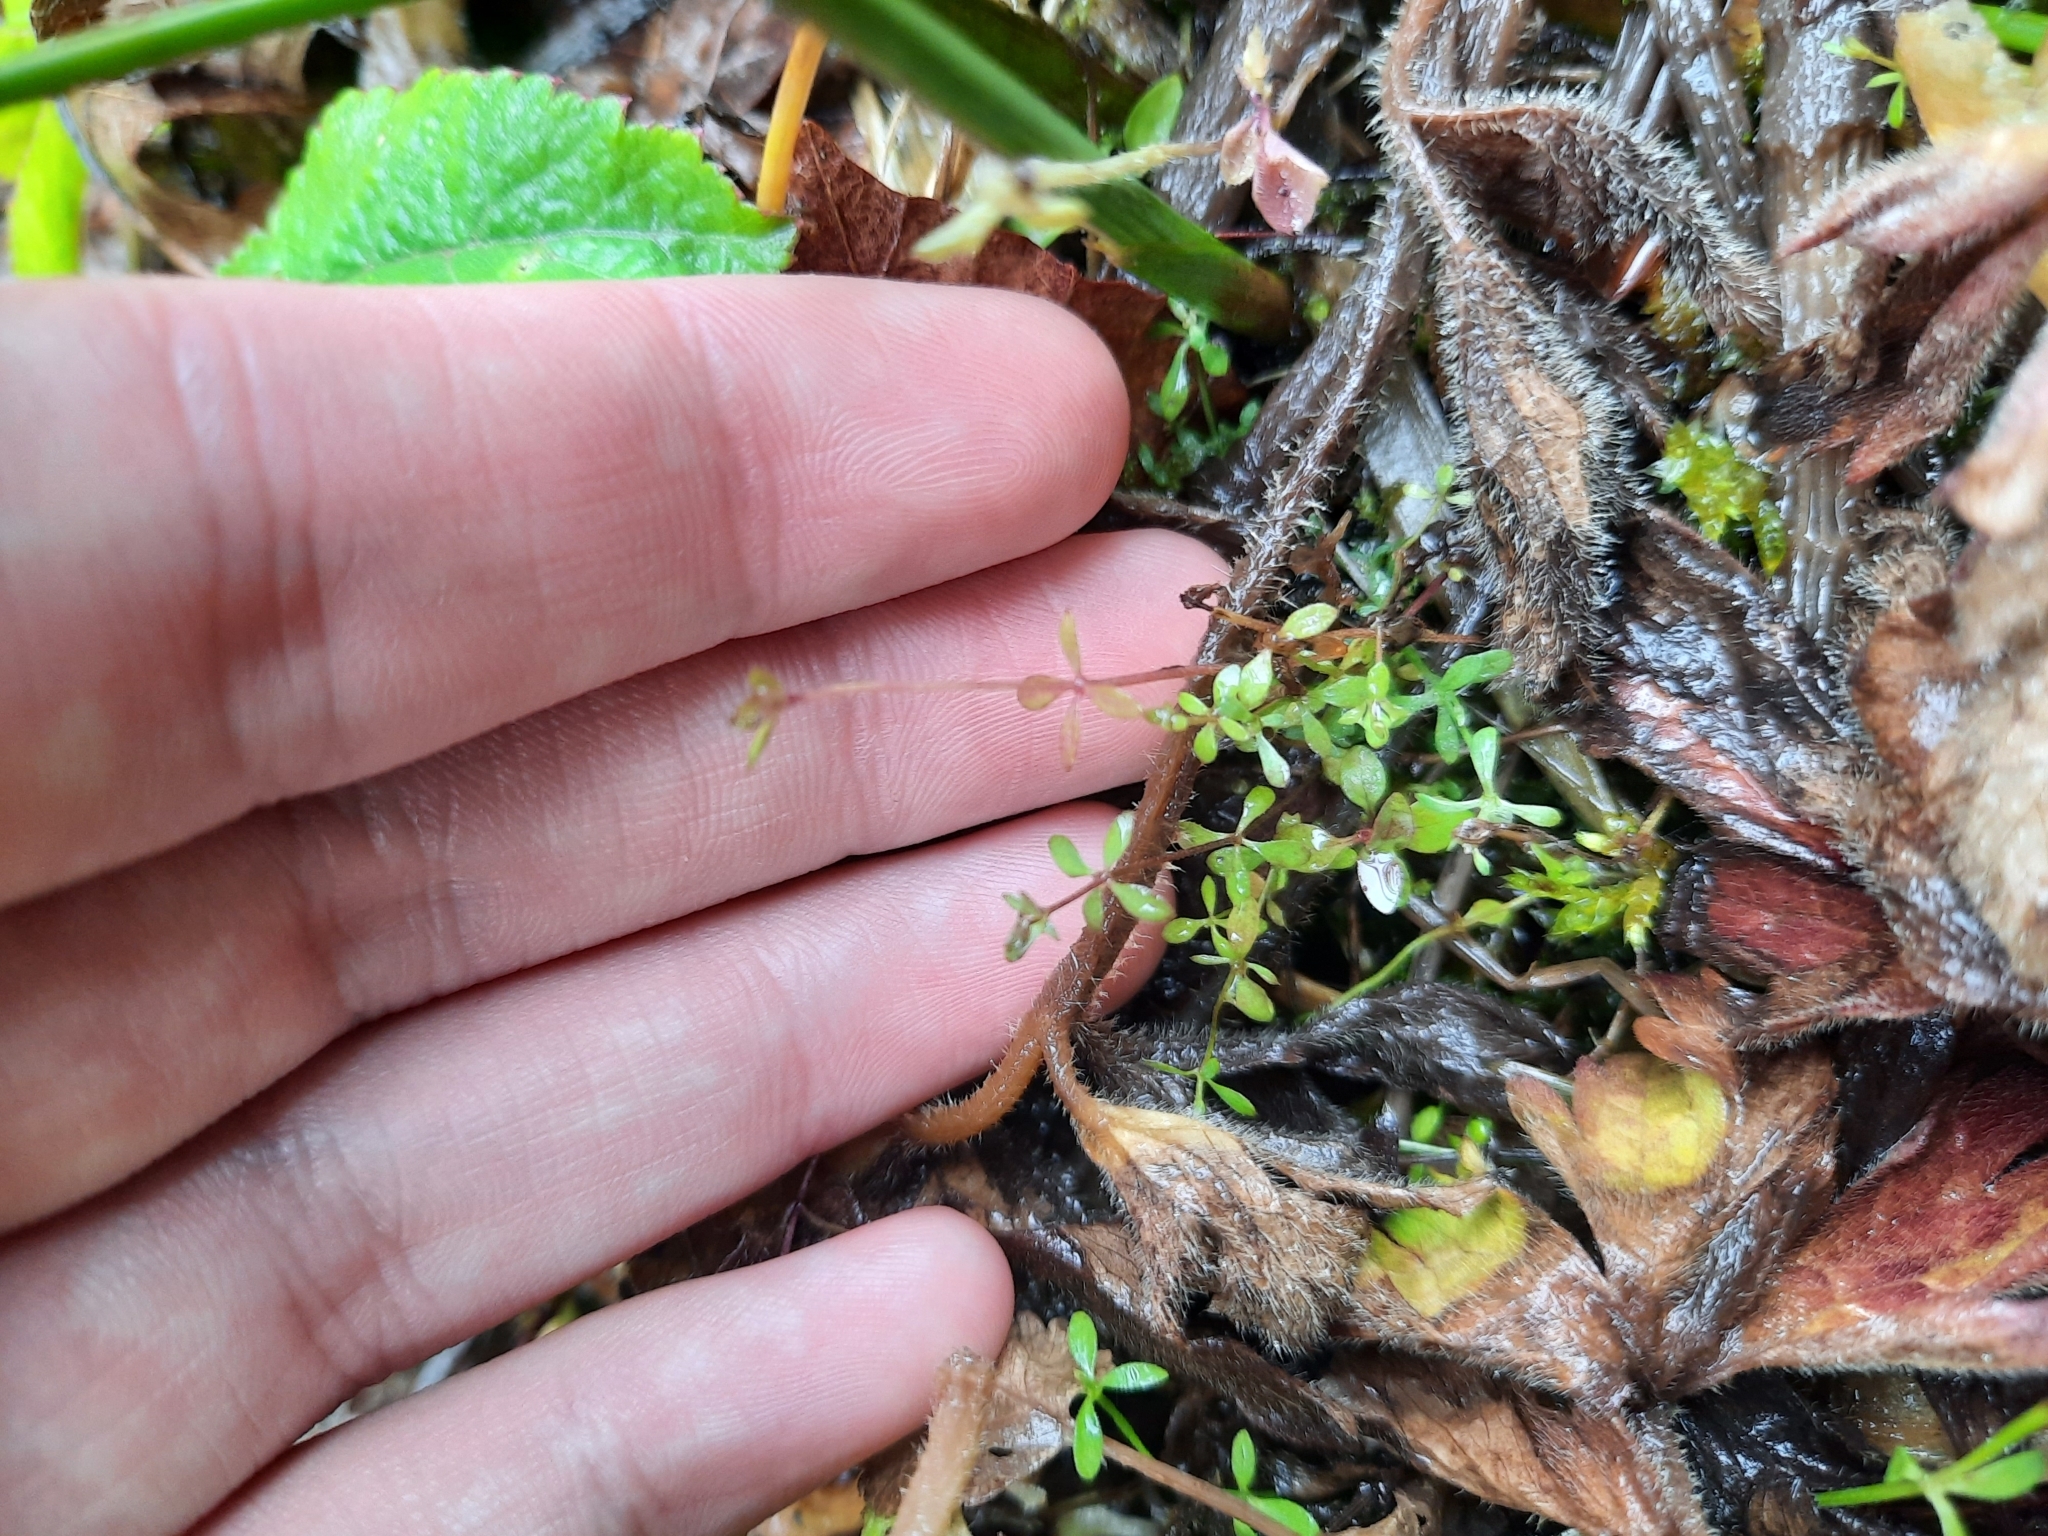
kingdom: Plantae
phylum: Tracheophyta
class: Magnoliopsida
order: Gentianales
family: Rubiaceae
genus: Galium
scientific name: Galium palustre
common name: Common marsh-bedstraw
